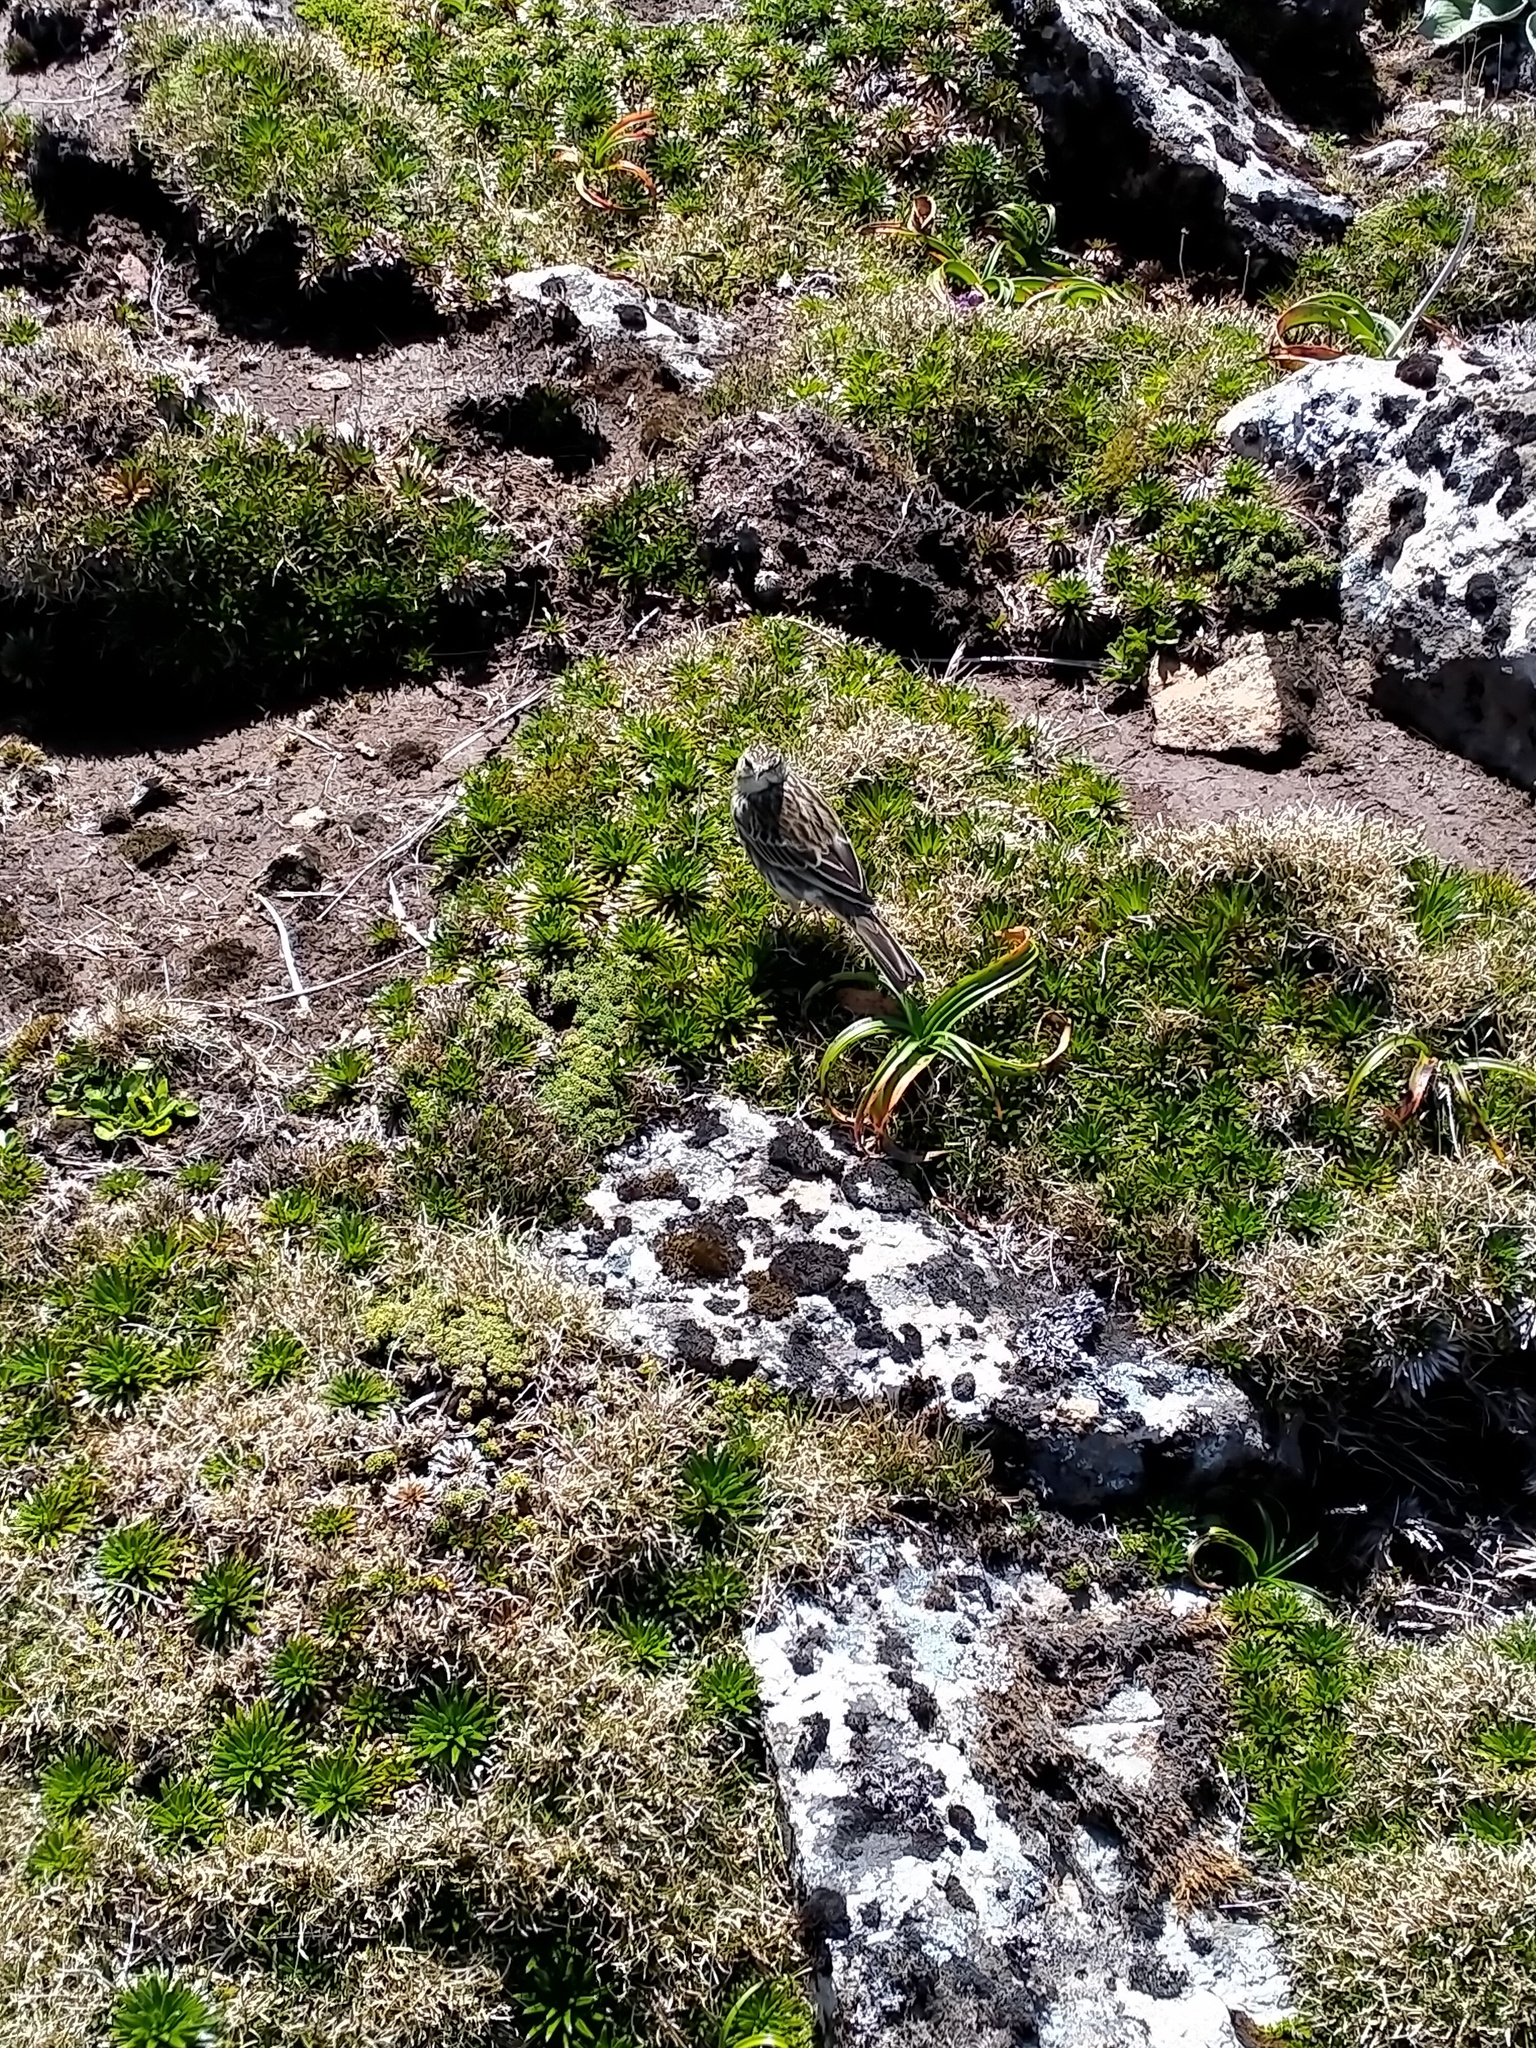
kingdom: Animalia
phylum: Chordata
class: Aves
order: Passeriformes
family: Motacillidae
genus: Anthus
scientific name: Anthus novaeseelandiae
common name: New zealand pipit
